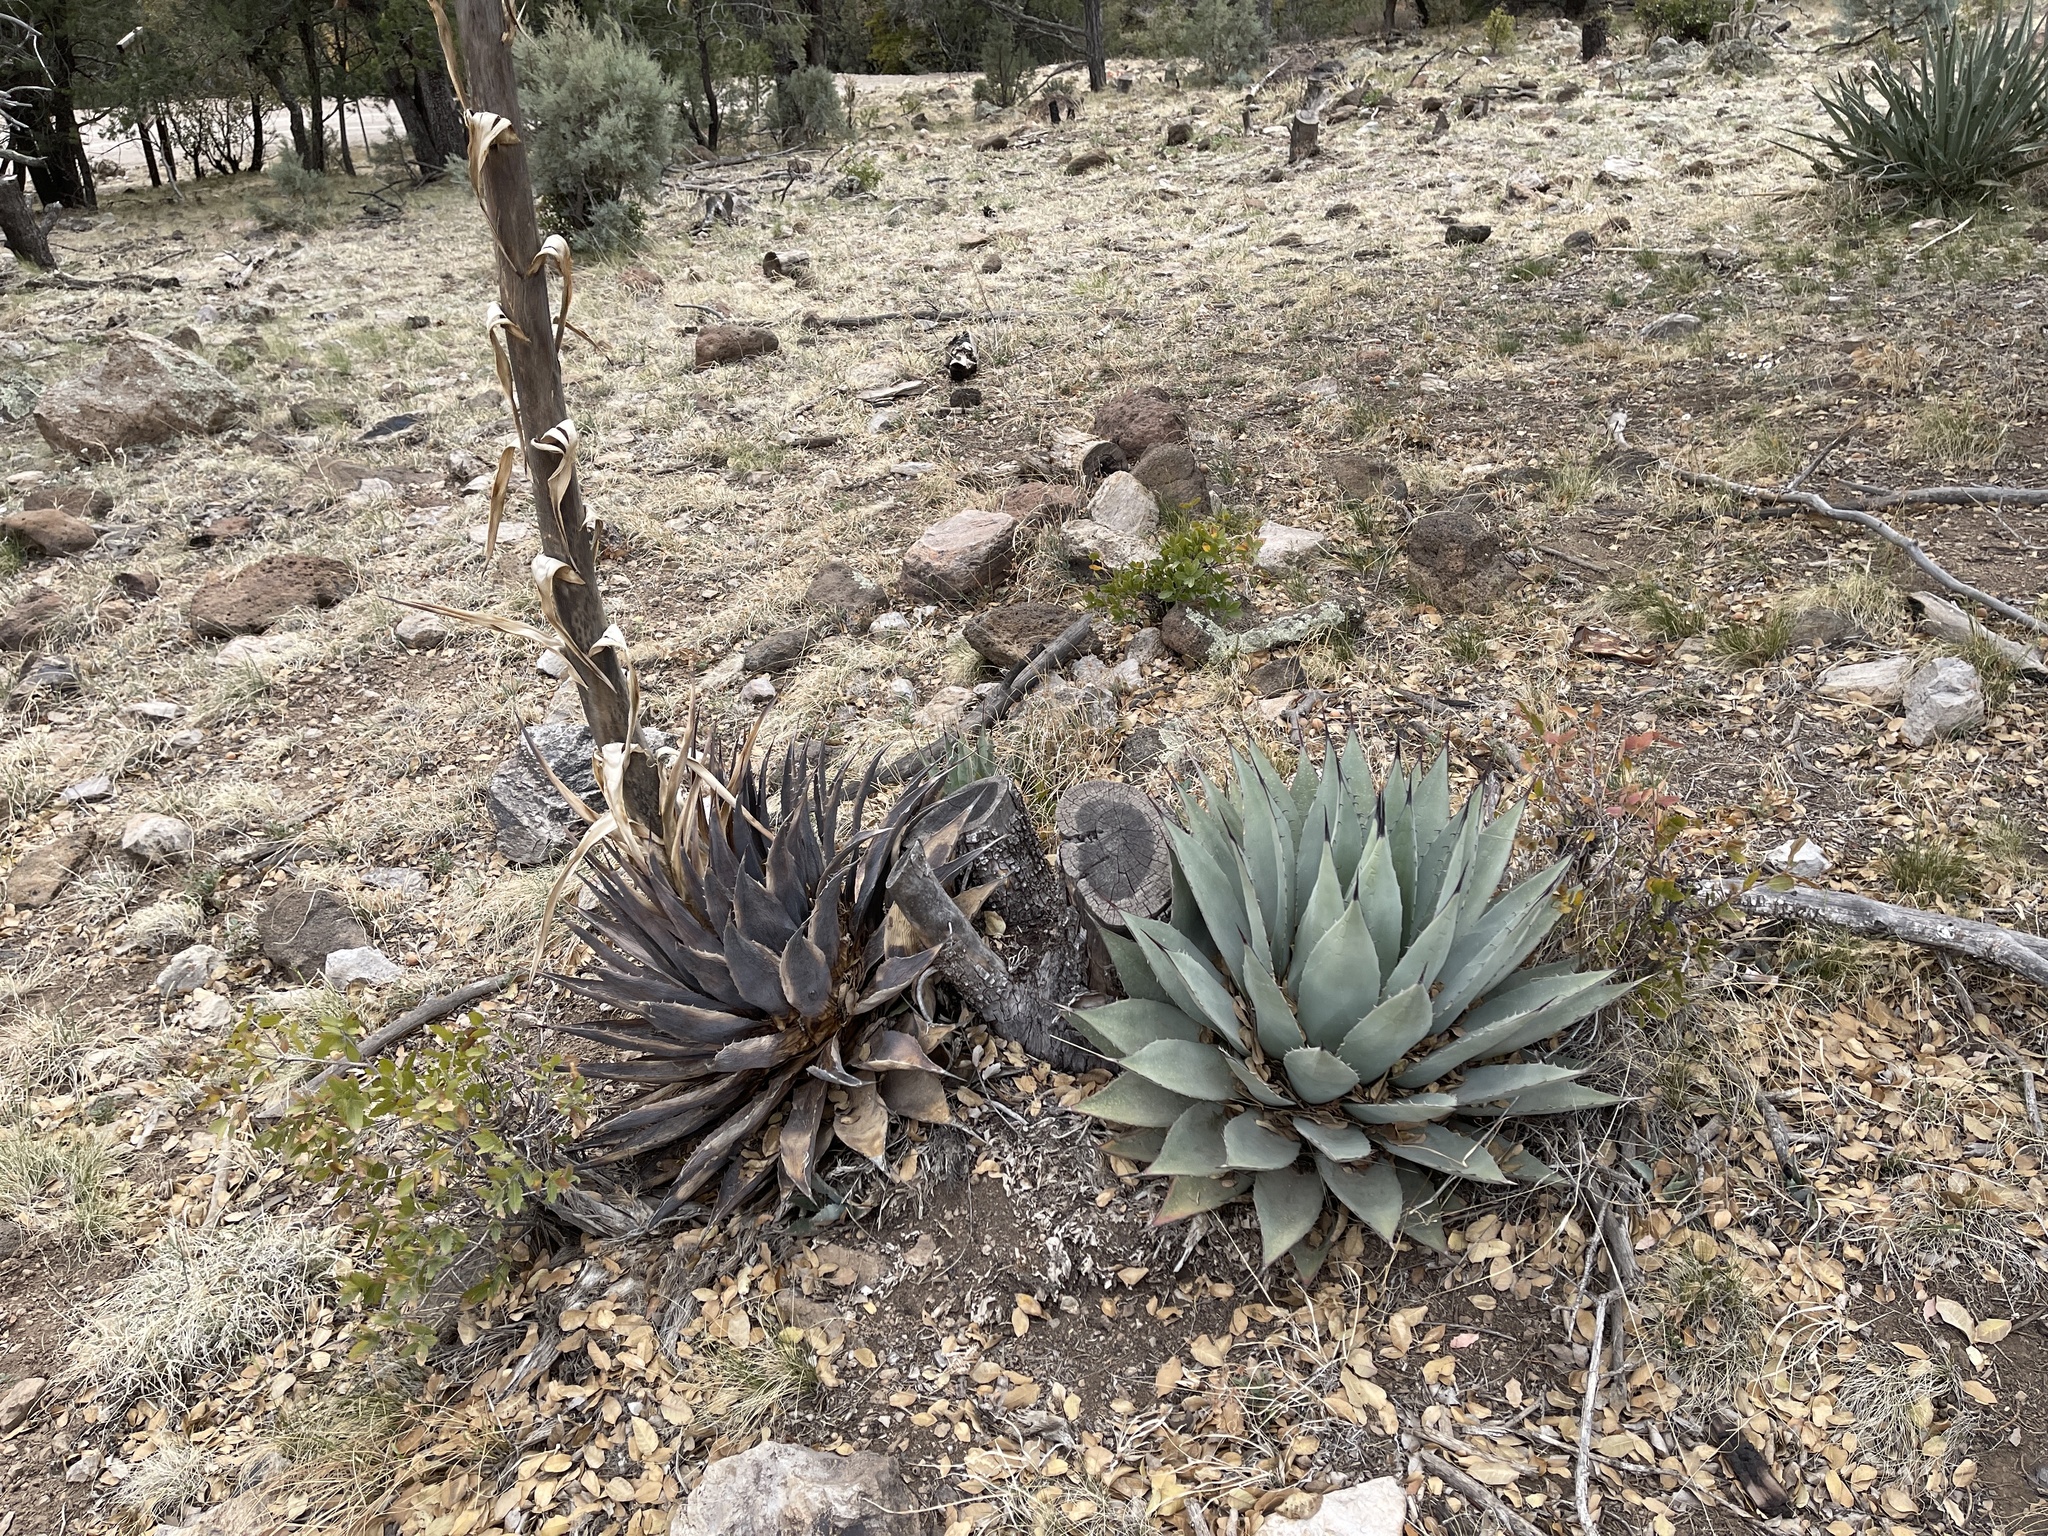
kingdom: Plantae
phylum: Tracheophyta
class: Liliopsida
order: Asparagales
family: Asparagaceae
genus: Agave
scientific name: Agave parryi
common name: Parry's agave
